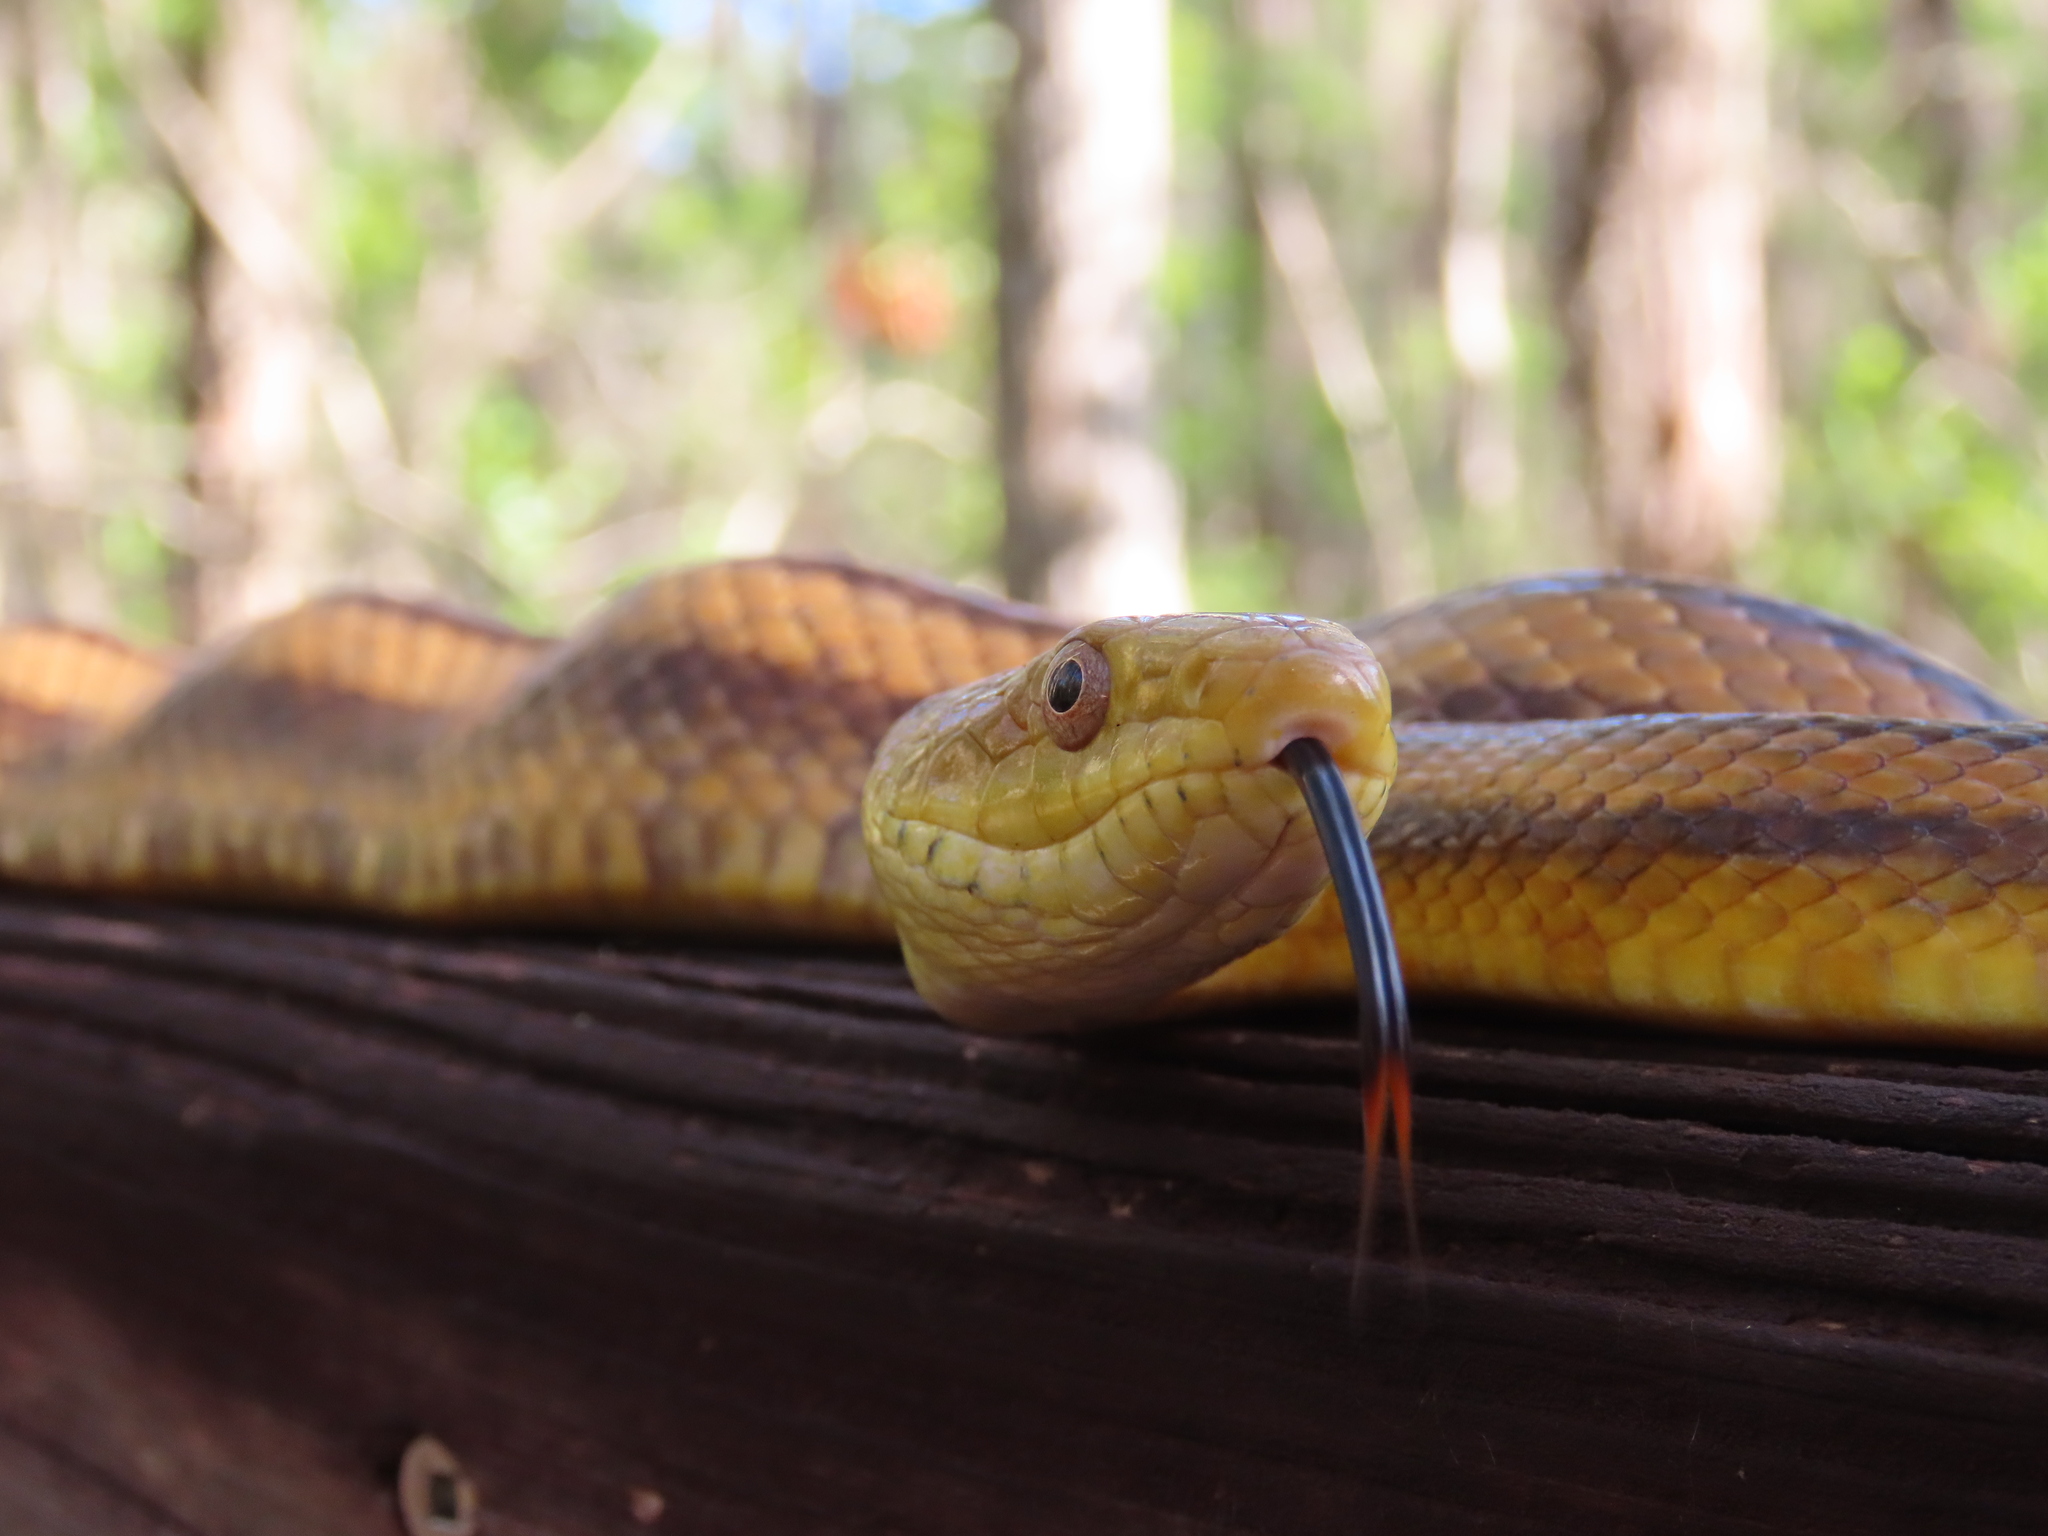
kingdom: Animalia
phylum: Chordata
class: Squamata
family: Colubridae
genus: Pantherophis
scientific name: Pantherophis alleghaniensis
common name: Eastern rat snake
